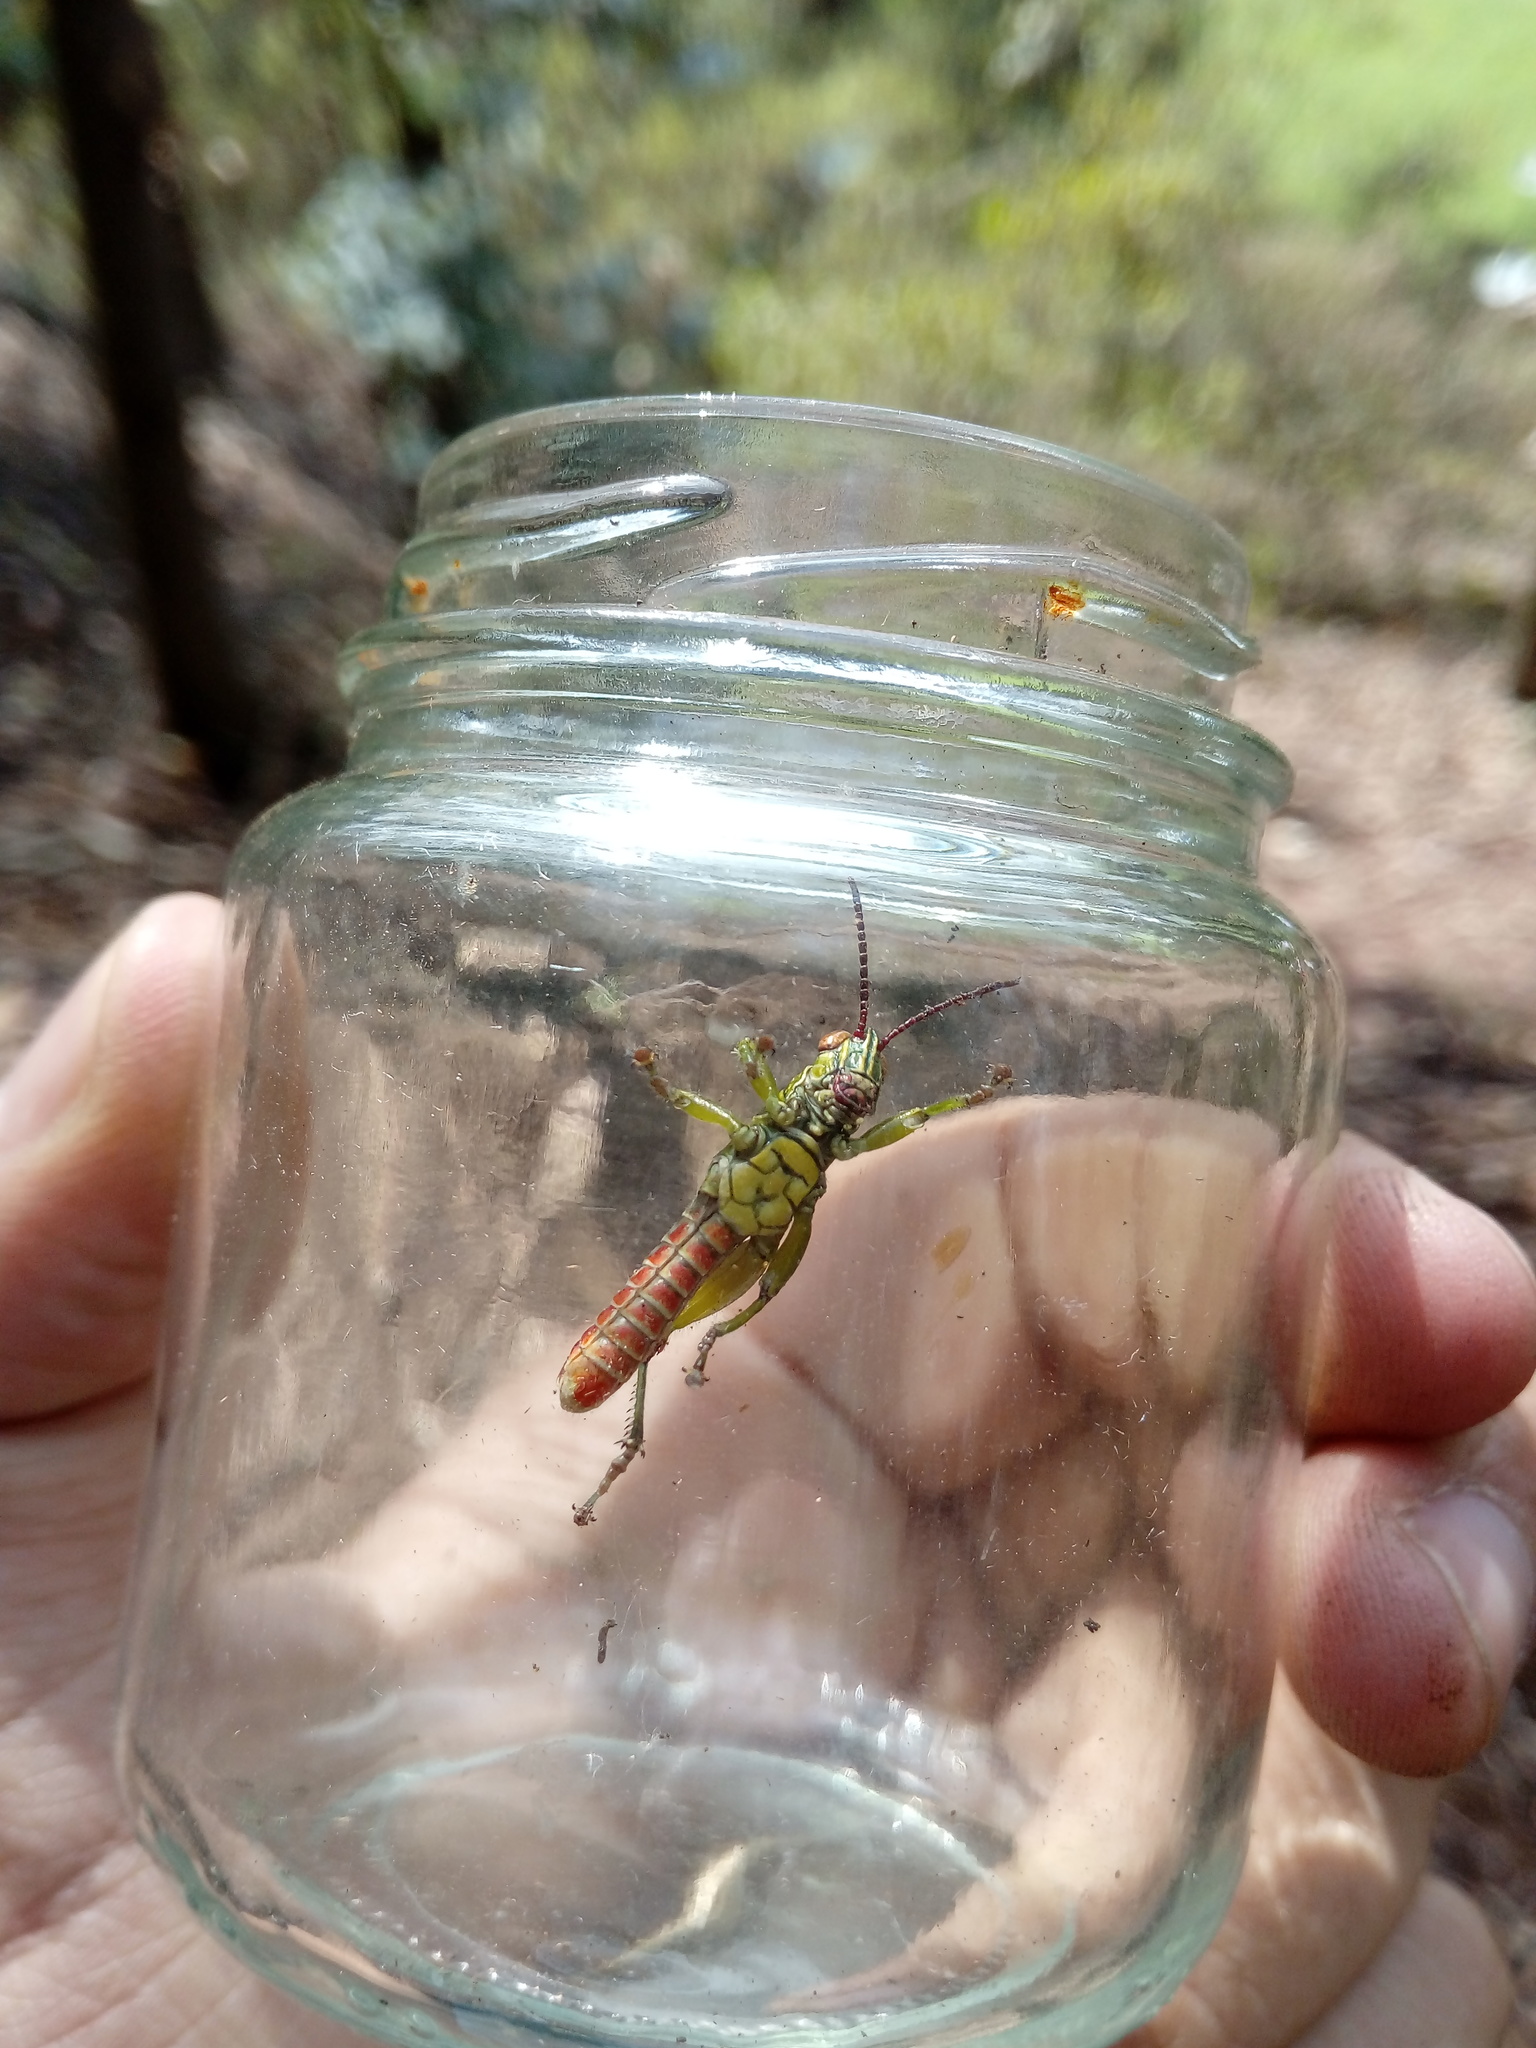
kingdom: Animalia
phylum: Arthropoda
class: Insecta
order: Orthoptera
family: Acrididae
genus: Agesander
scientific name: Agesander ruficornis
